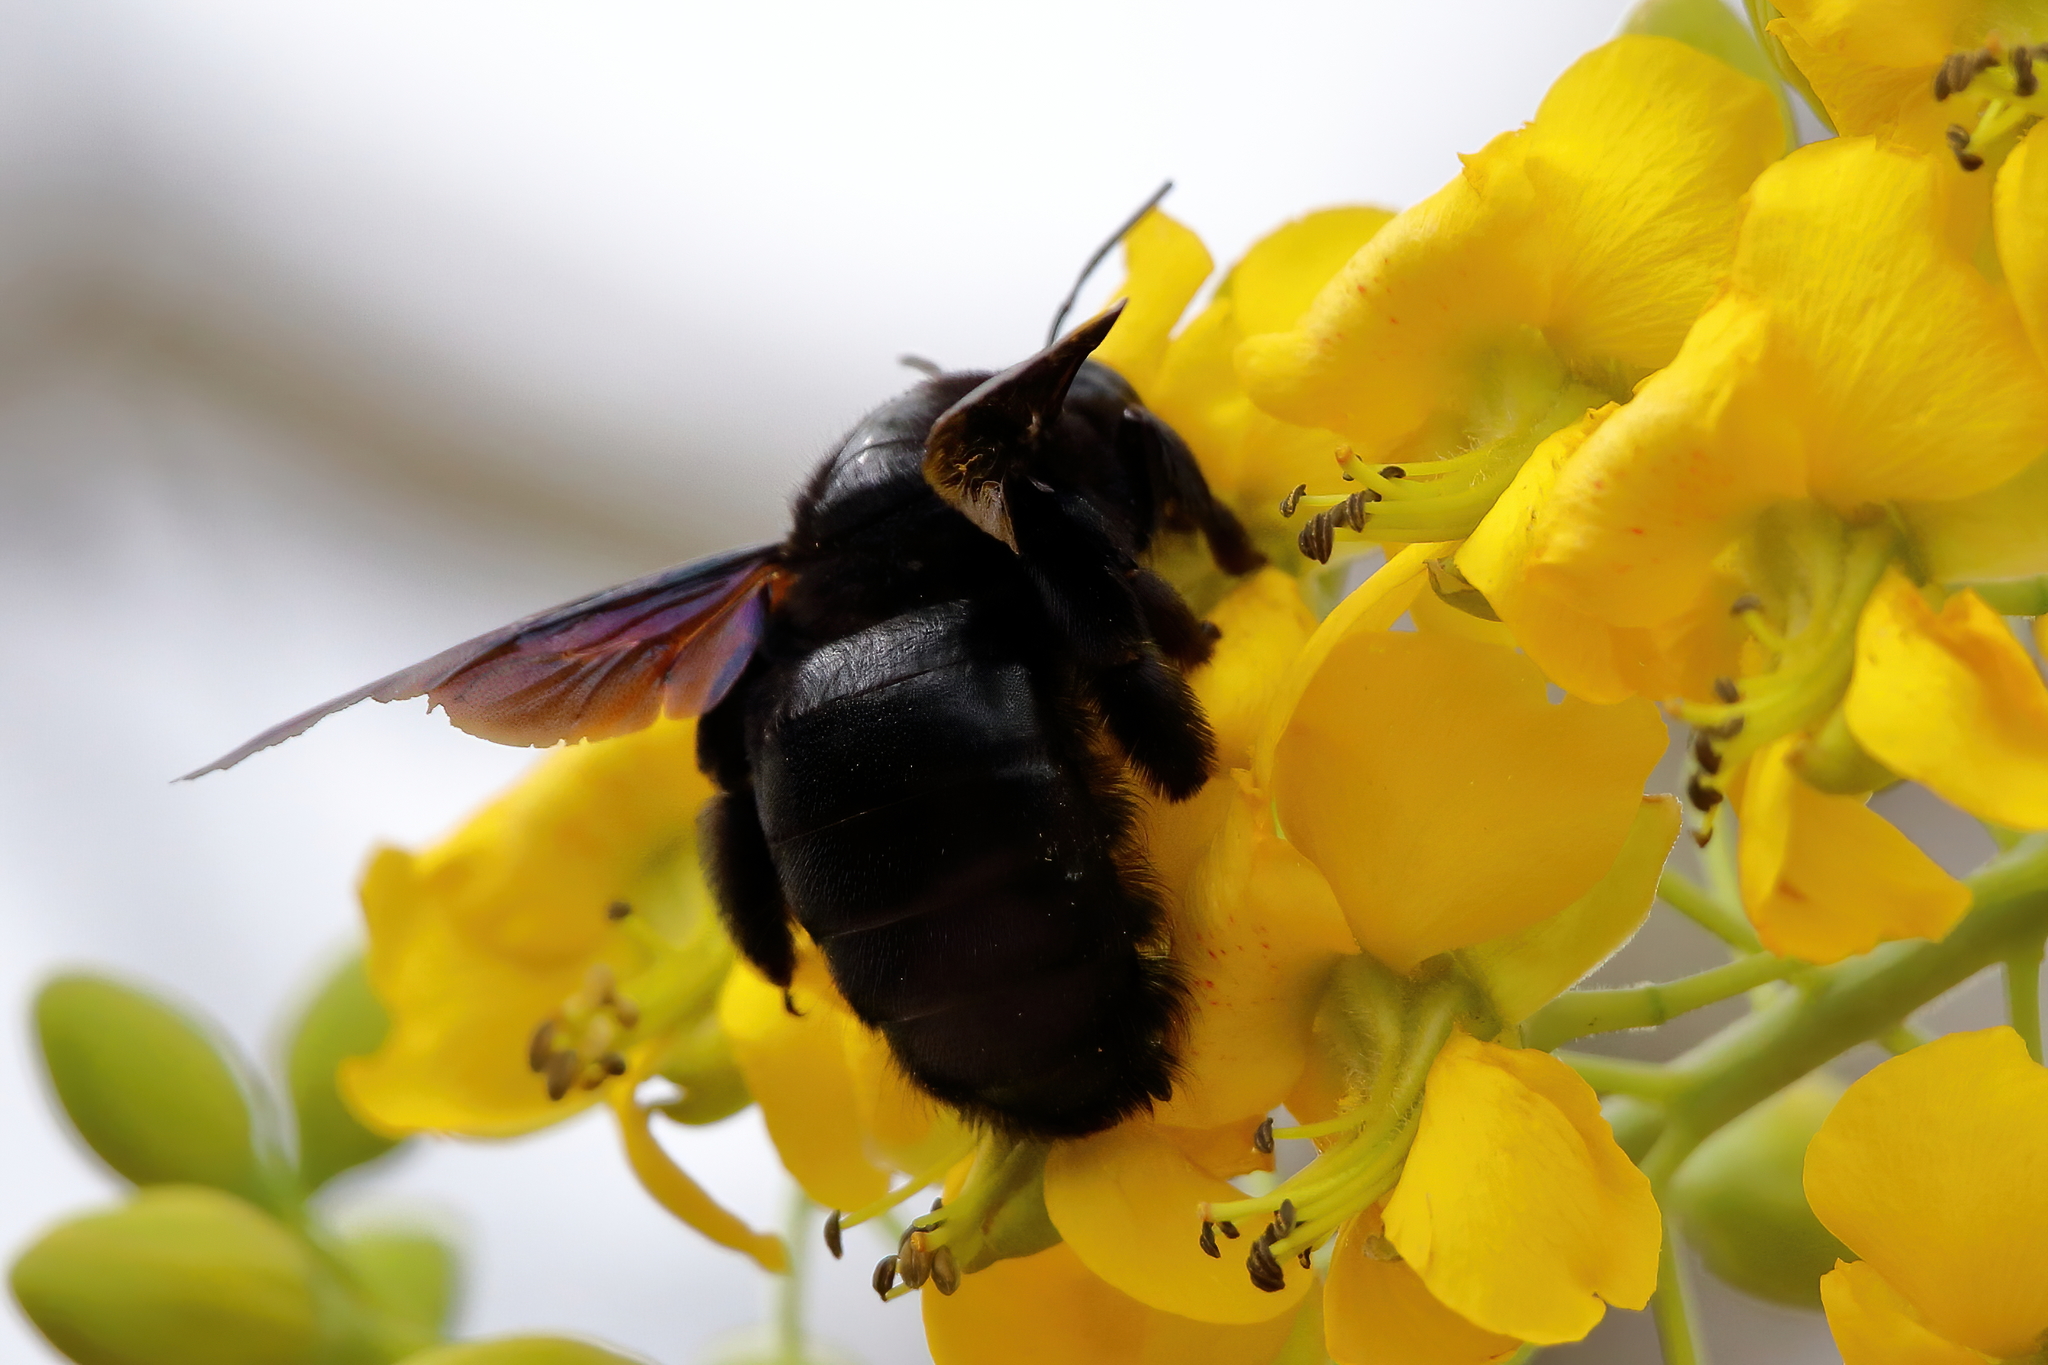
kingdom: Animalia
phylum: Arthropoda
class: Insecta
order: Hymenoptera
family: Apidae
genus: Xylocopa
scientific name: Xylocopa griswoldi
